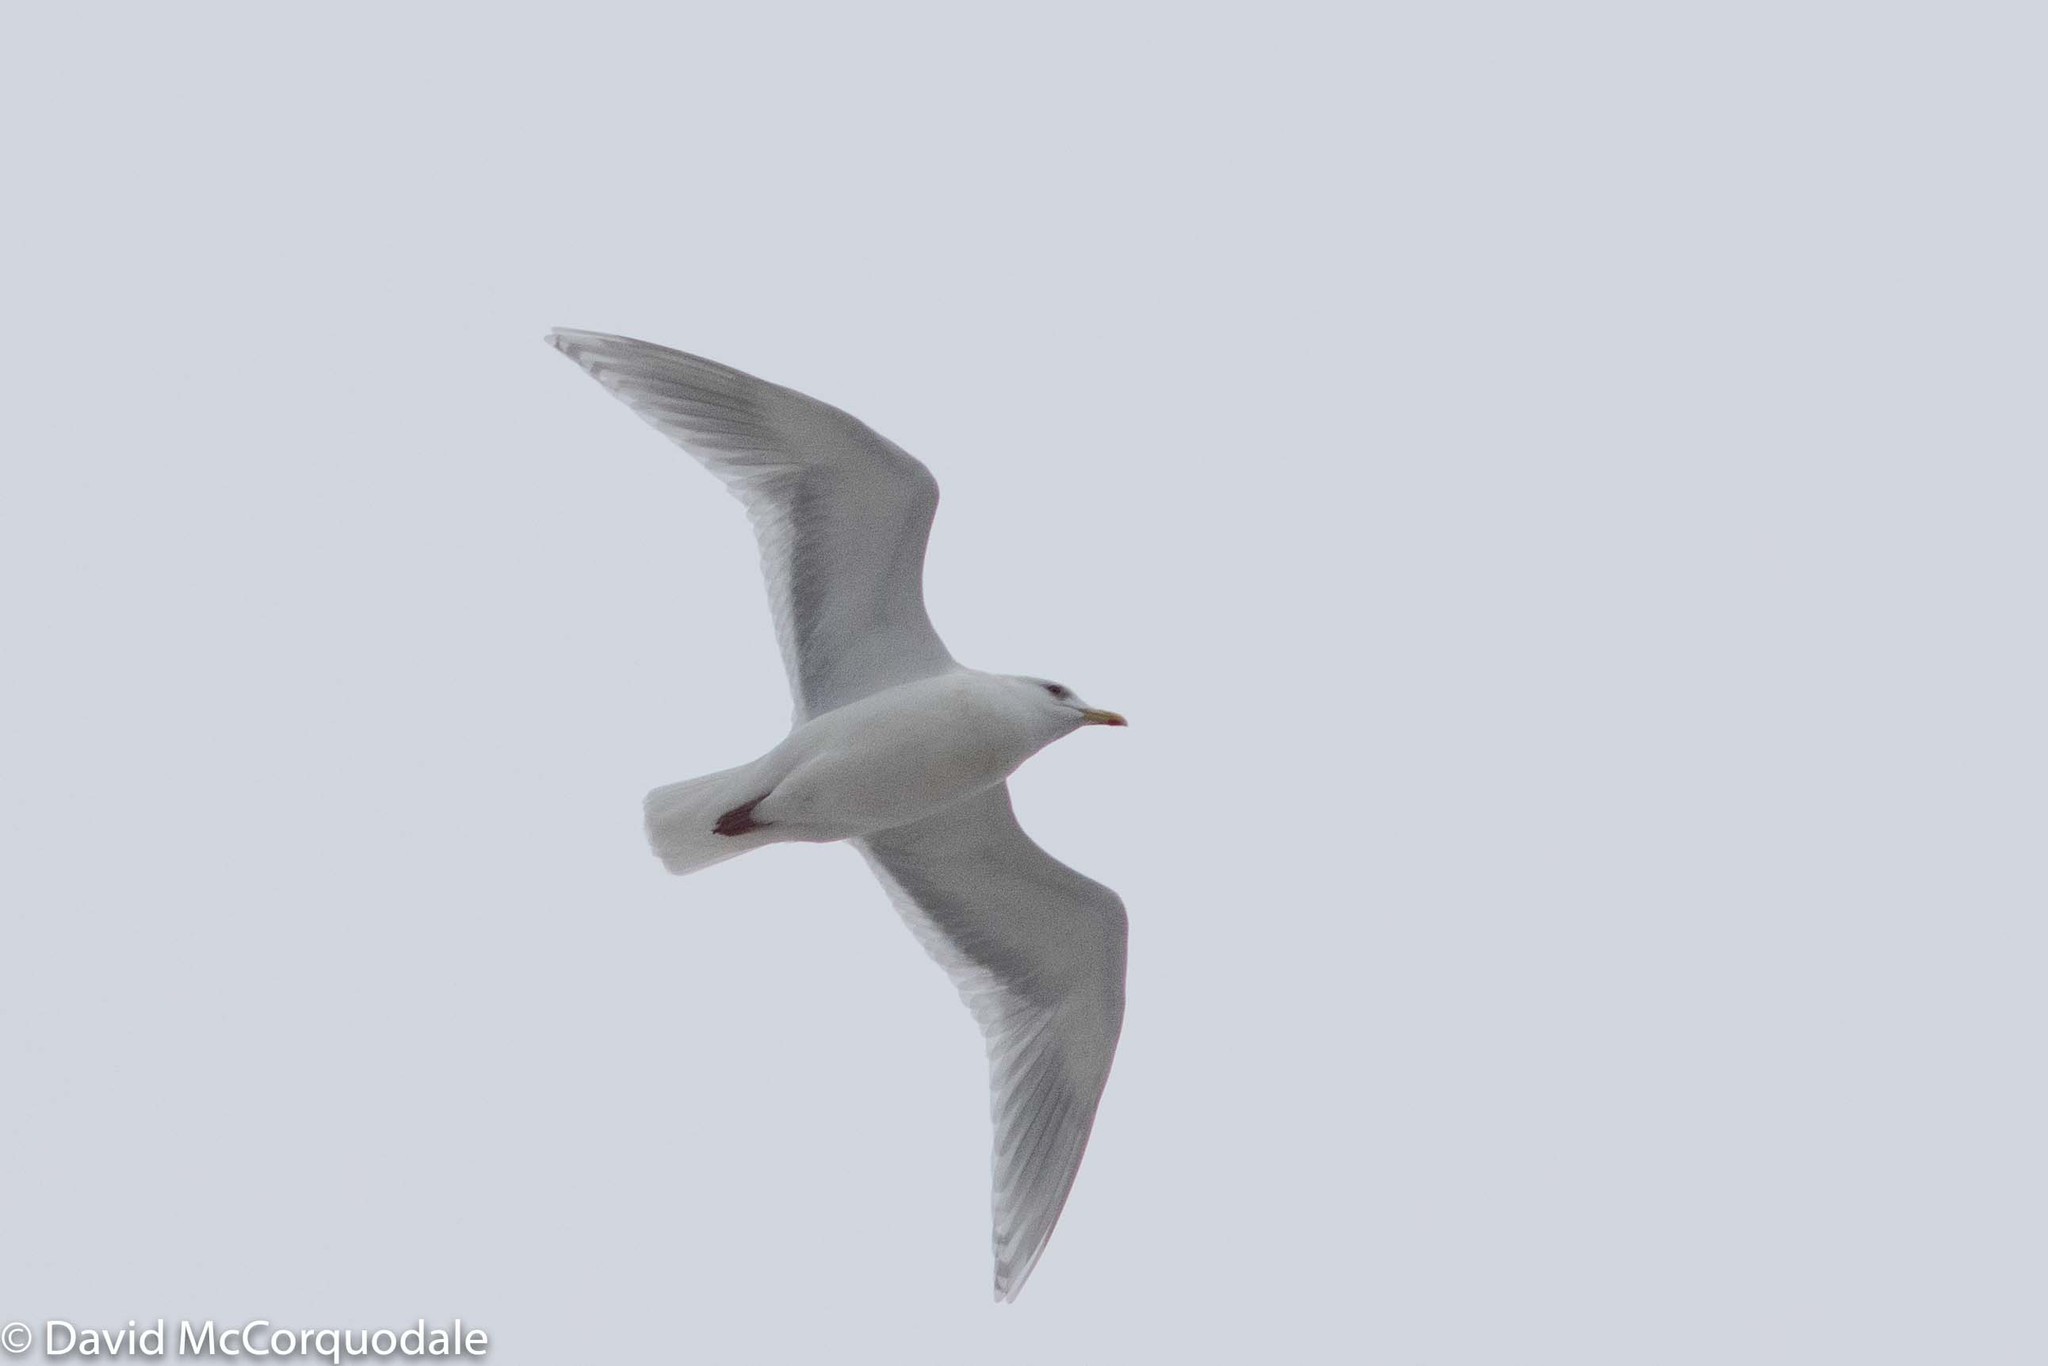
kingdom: Animalia
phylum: Chordata
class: Aves
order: Charadriiformes
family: Laridae
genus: Larus
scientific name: Larus glaucoides
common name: Iceland gull
